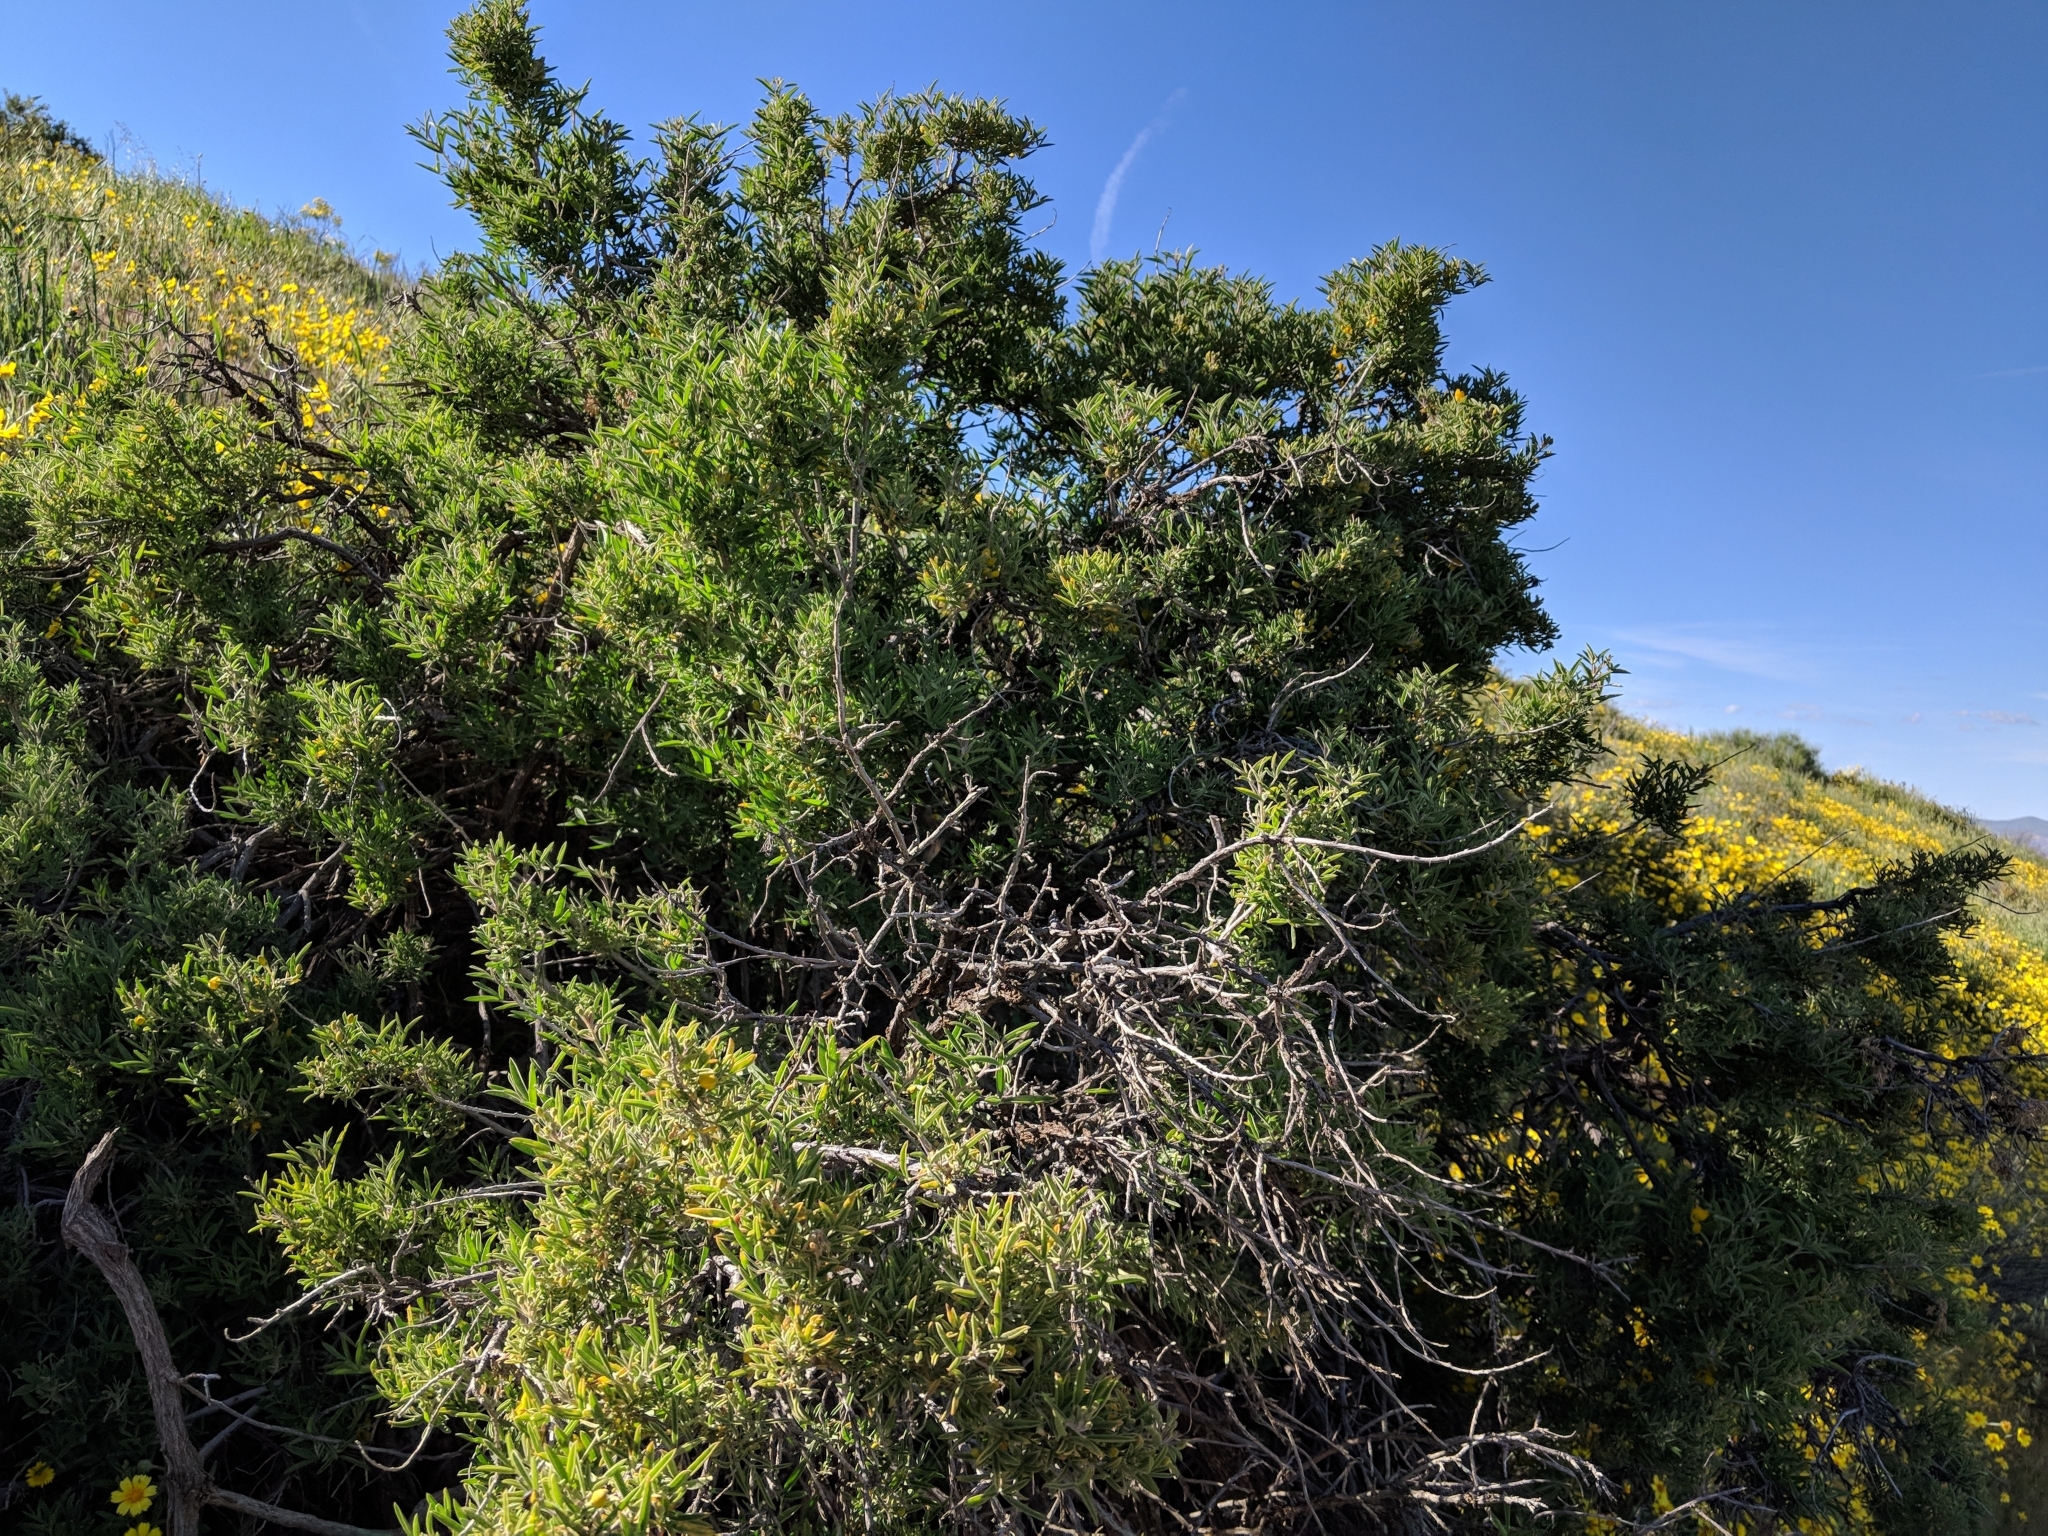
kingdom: Plantae
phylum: Tracheophyta
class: Magnoliopsida
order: Brassicales
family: Cleomaceae
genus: Cleomella
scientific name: Cleomella arborea
